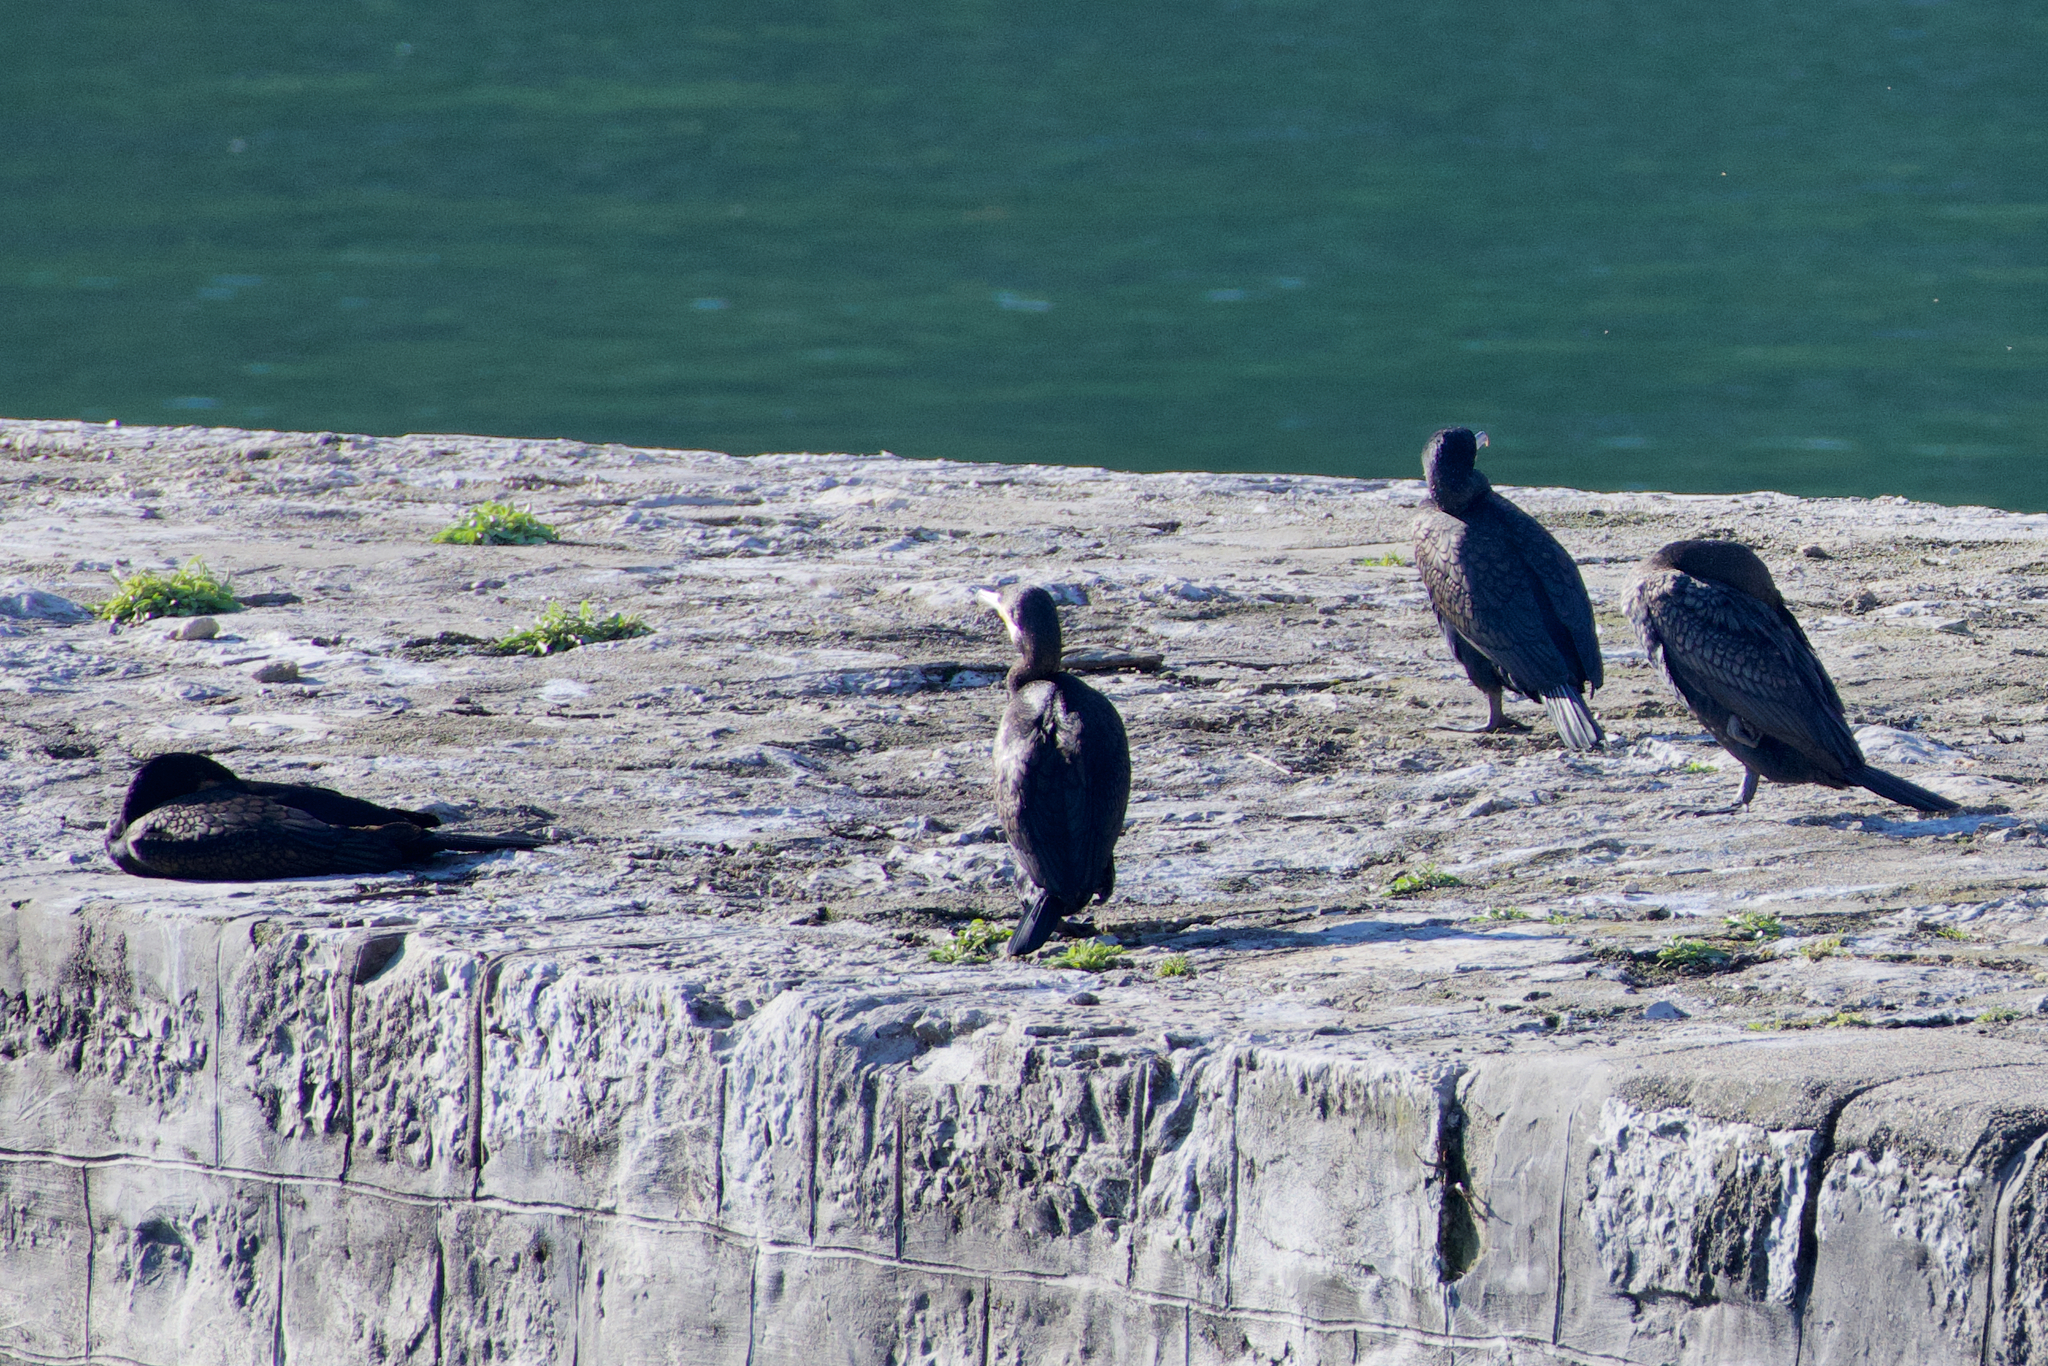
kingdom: Animalia
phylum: Chordata
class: Aves
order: Suliformes
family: Phalacrocoracidae
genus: Phalacrocorax
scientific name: Phalacrocorax carbo
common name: Great cormorant
